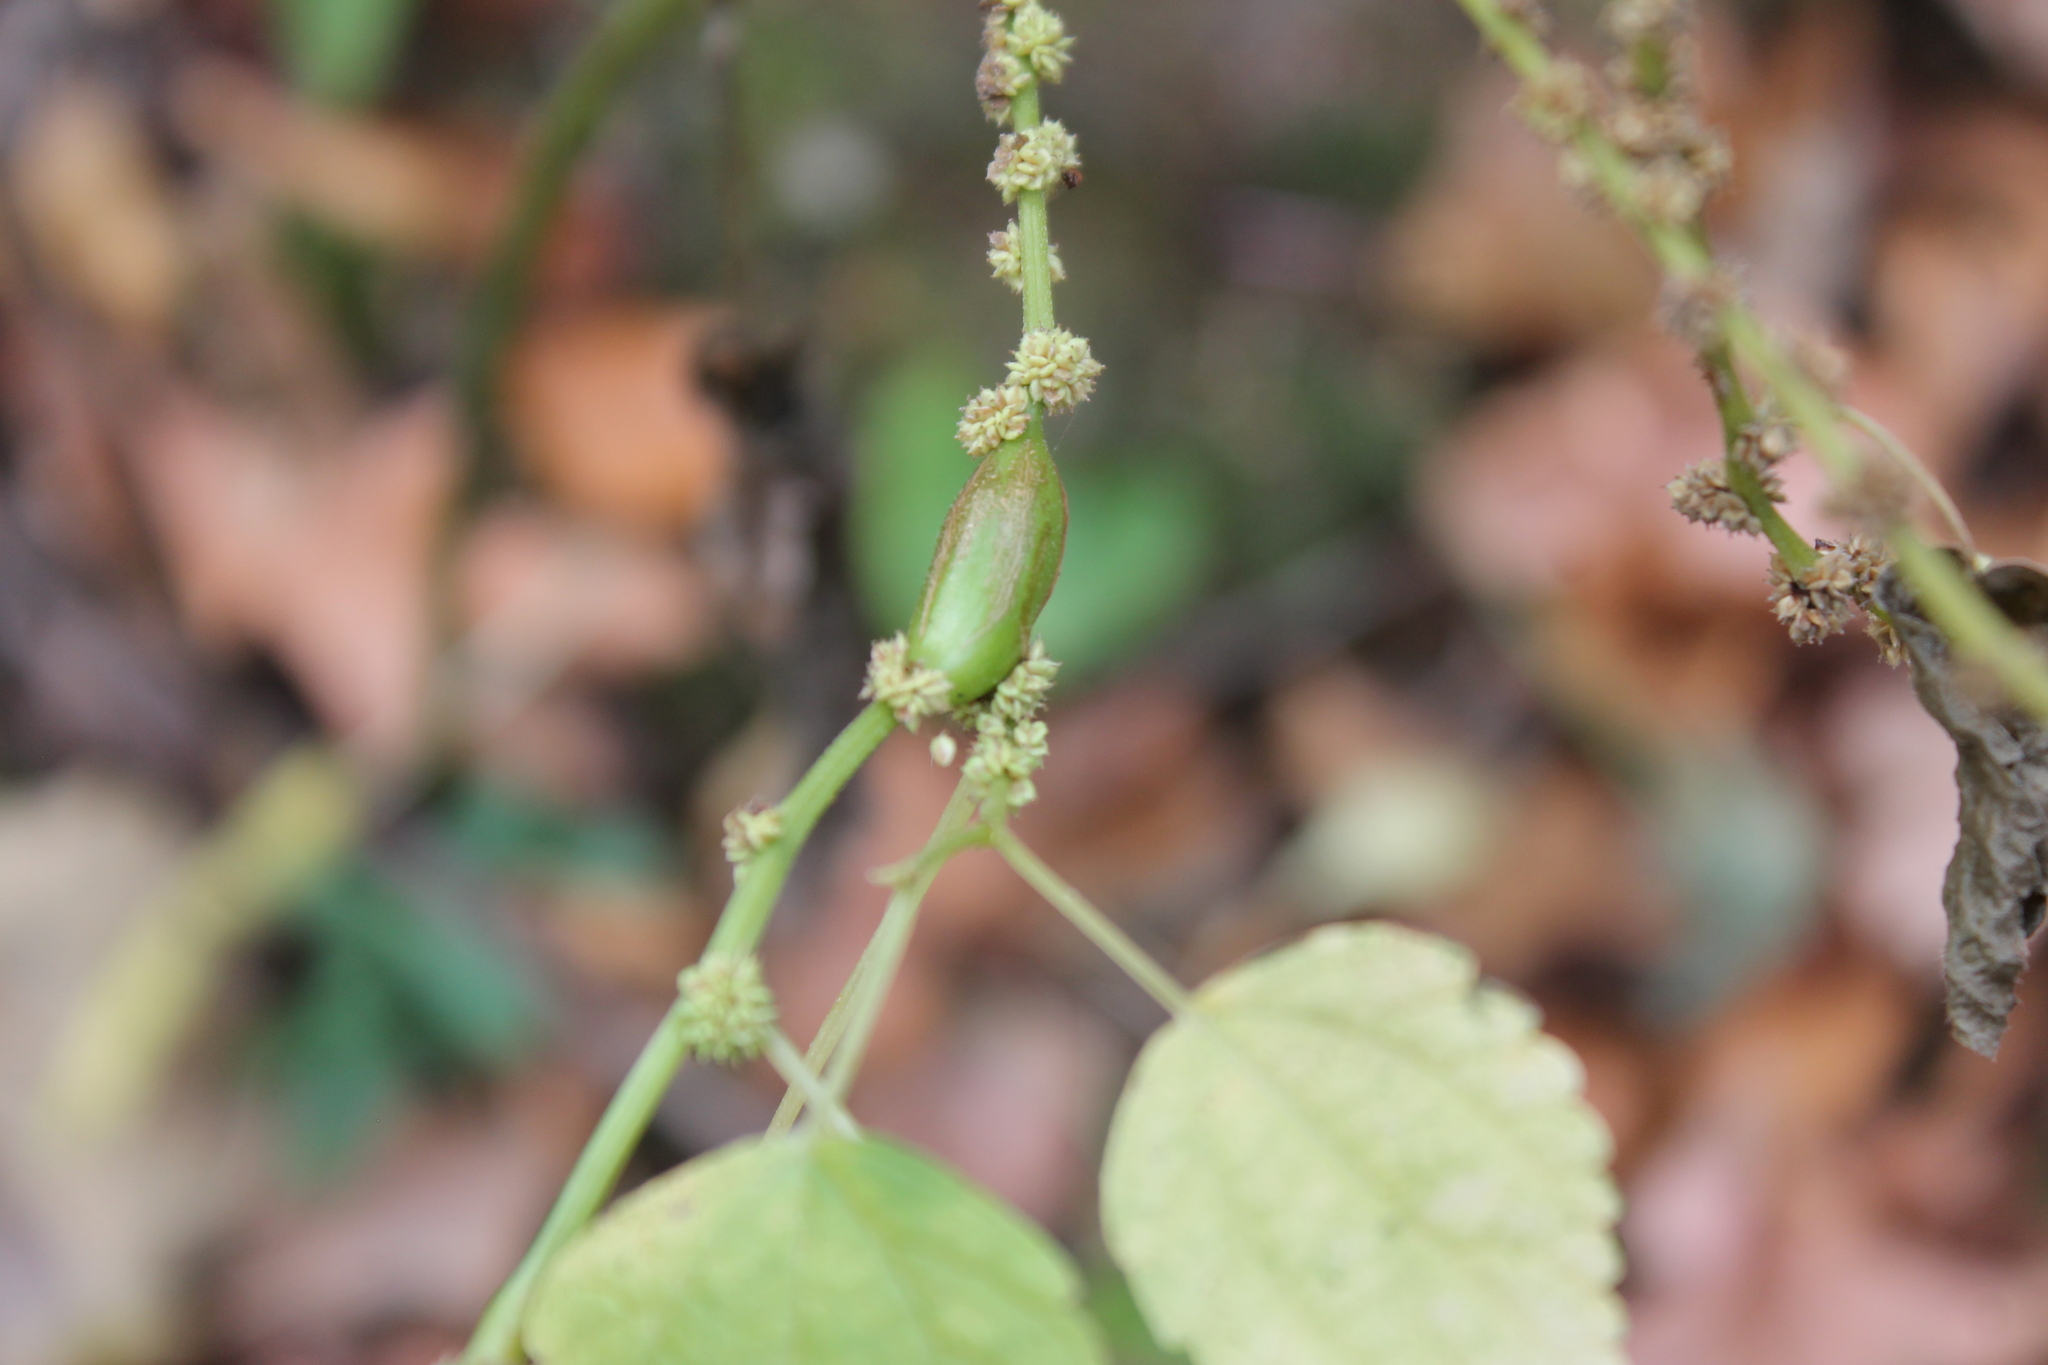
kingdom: Animalia
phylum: Arthropoda
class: Insecta
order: Diptera
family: Cecidomyiidae
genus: Neolasioptera
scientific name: Neolasioptera boehmeriae
